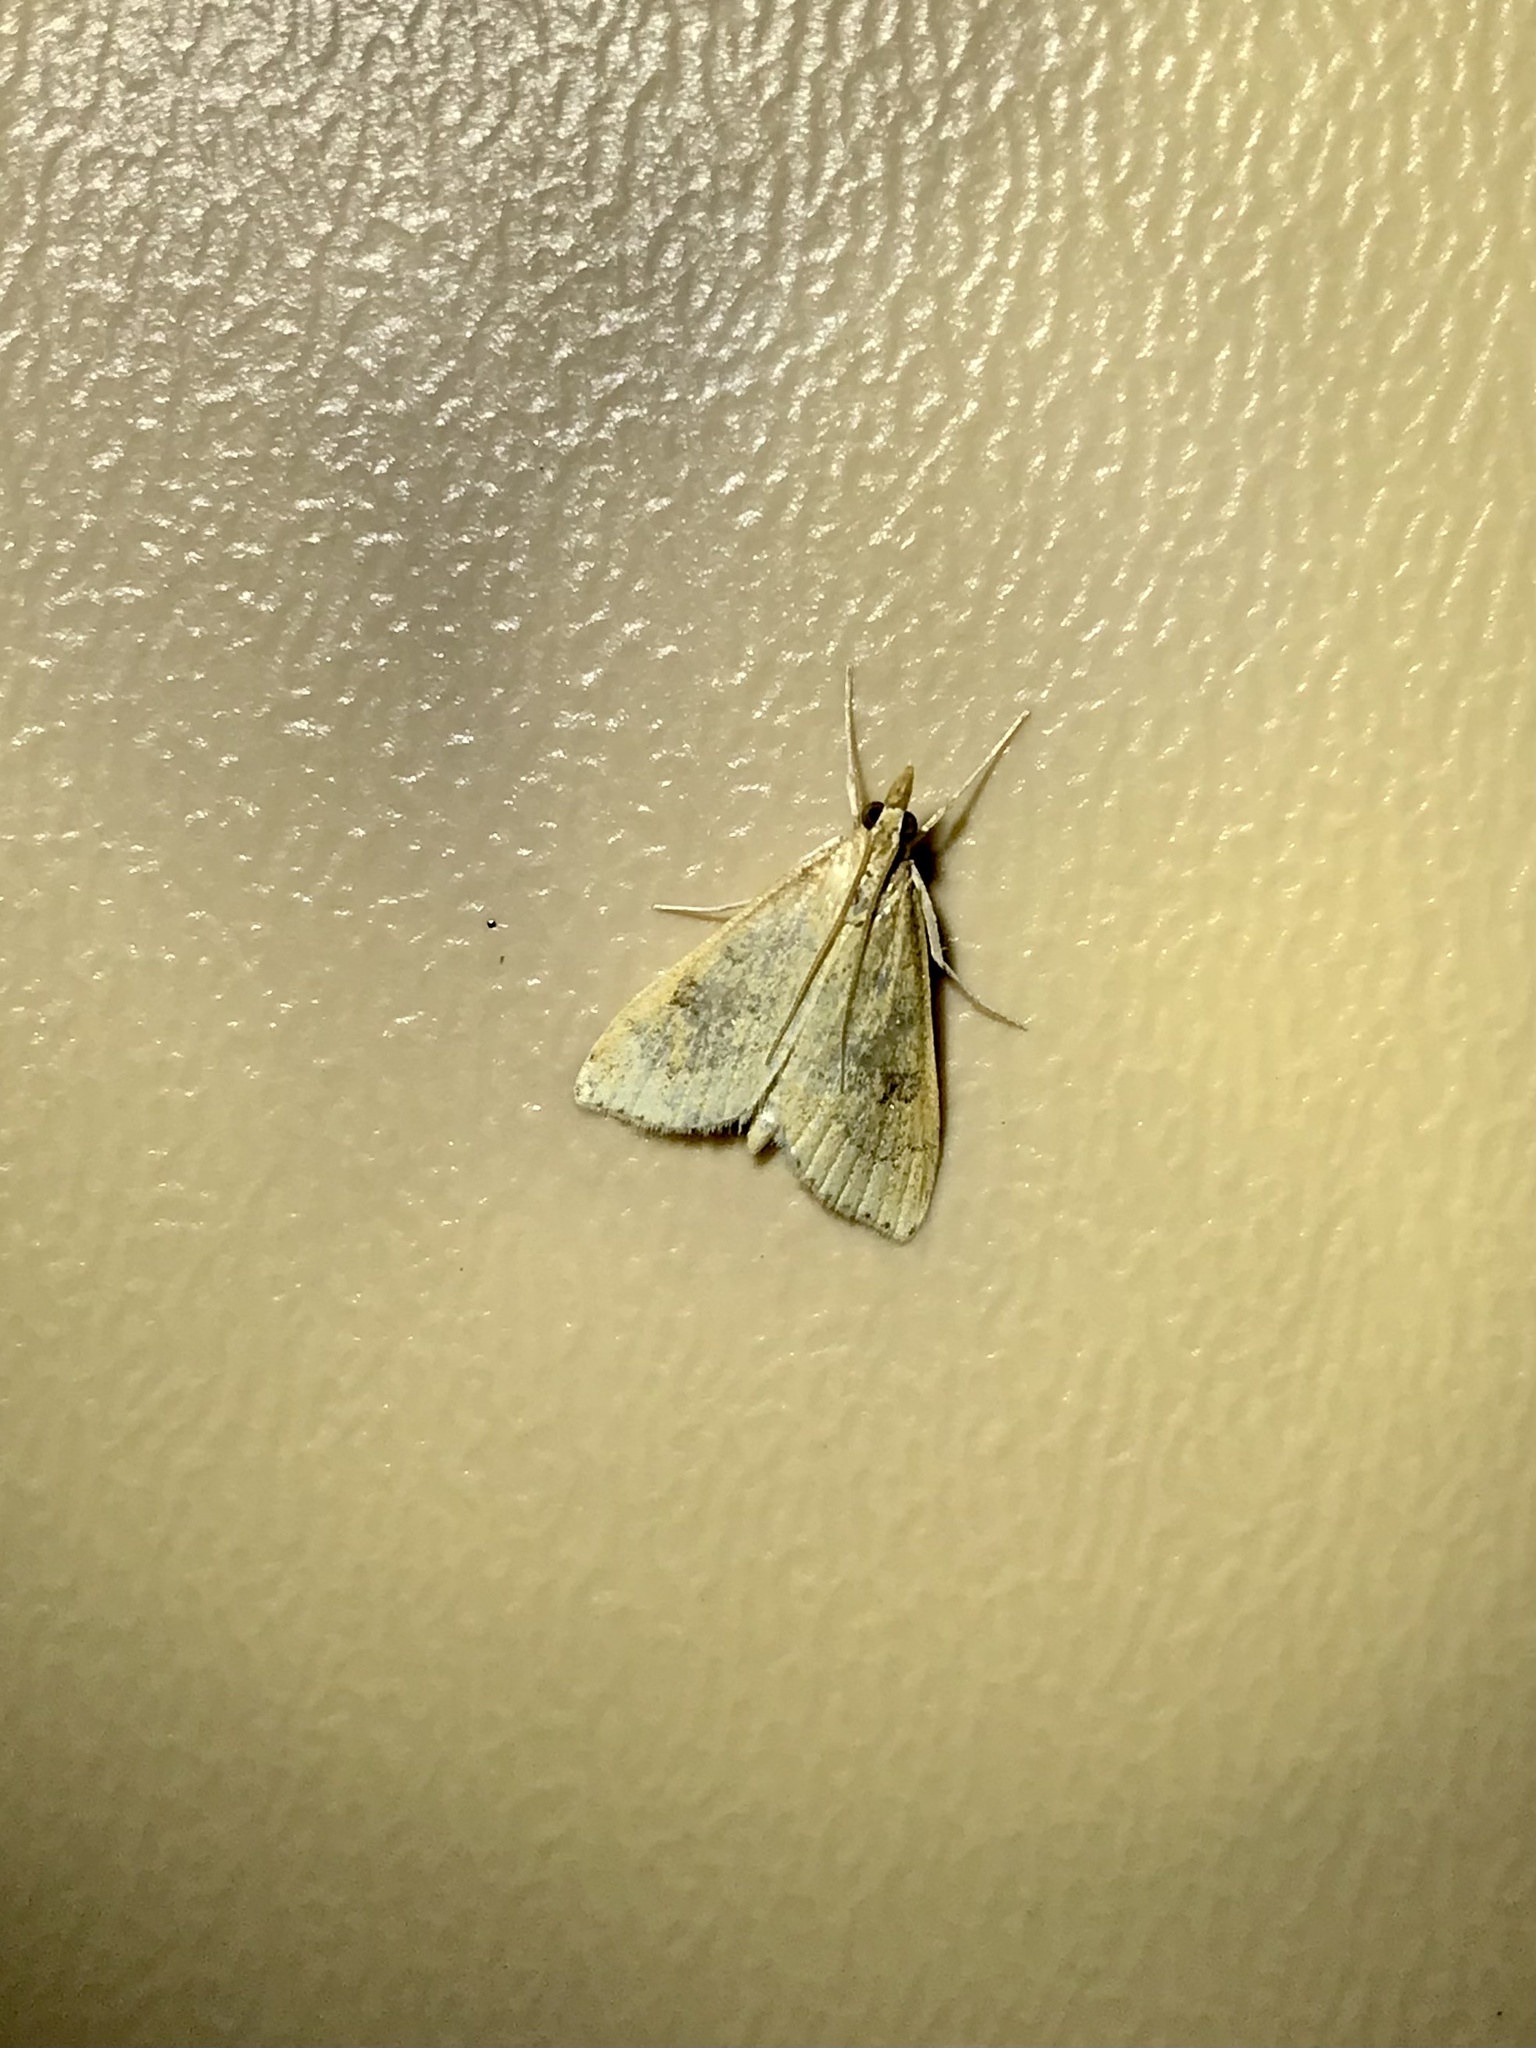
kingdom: Animalia
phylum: Arthropoda
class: Insecta
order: Lepidoptera
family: Crambidae
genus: Udea
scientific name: Udea rubigalis
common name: Celery leaftier moth
